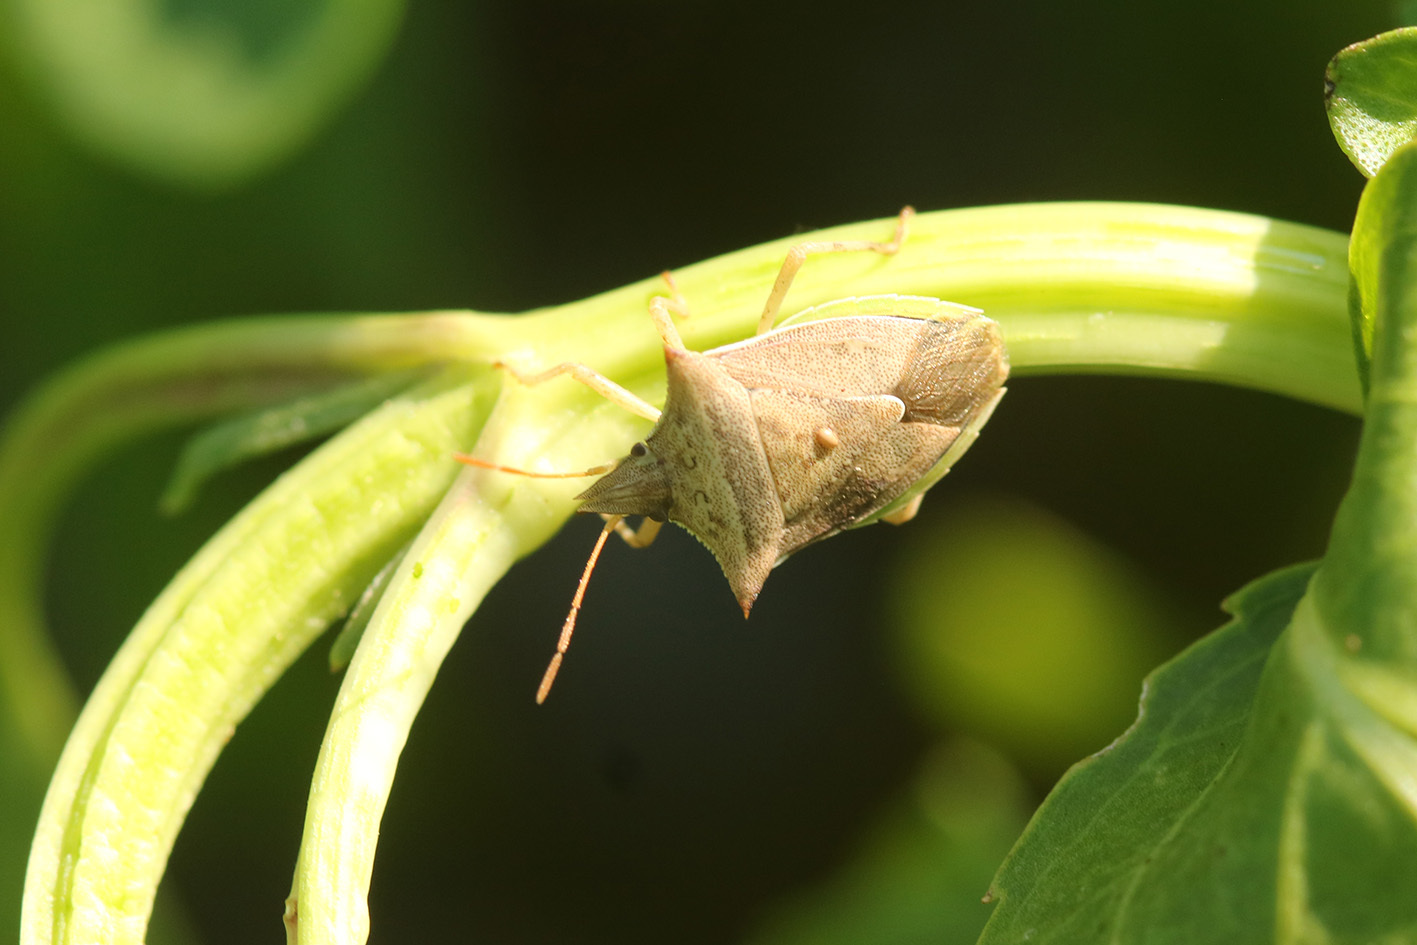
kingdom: Animalia
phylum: Arthropoda
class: Insecta
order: Hemiptera
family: Pentatomidae
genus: Diceraeus
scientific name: Diceraeus furcatus
